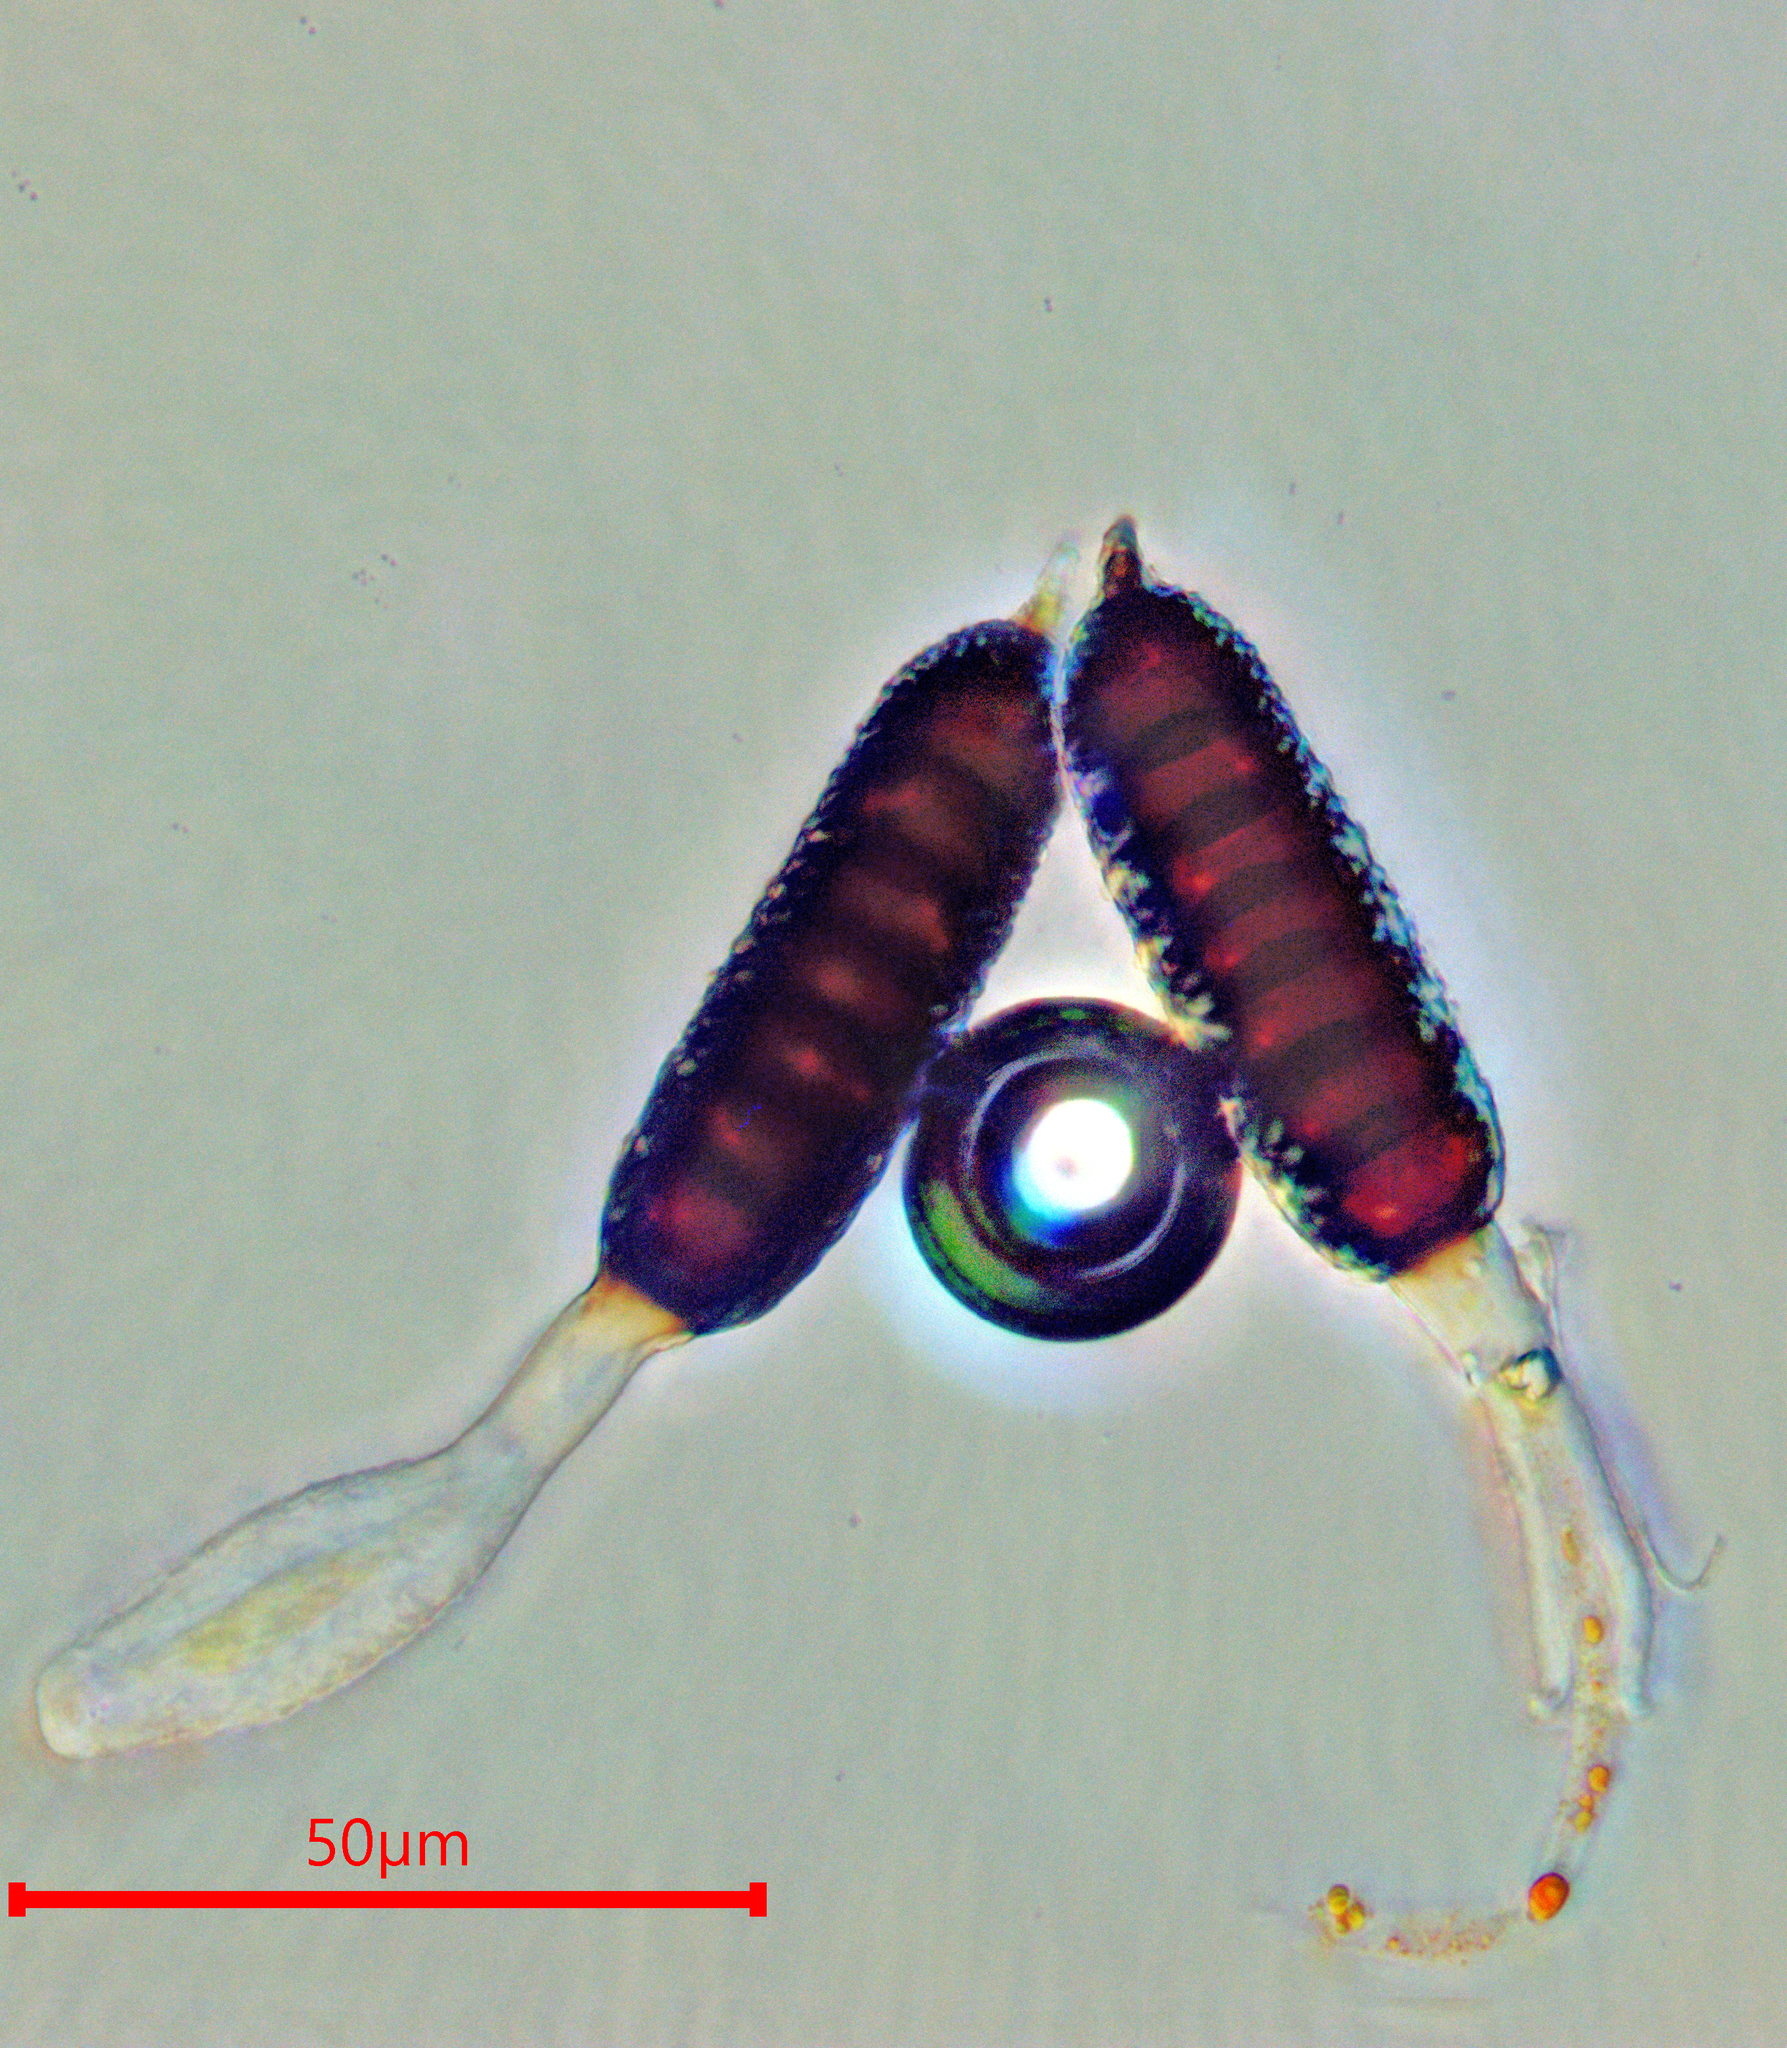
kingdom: Fungi
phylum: Basidiomycota
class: Pucciniomycetes
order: Pucciniales
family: Phragmidiaceae
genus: Phragmidium
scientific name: Phragmidium mucronatum
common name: Rose rust
